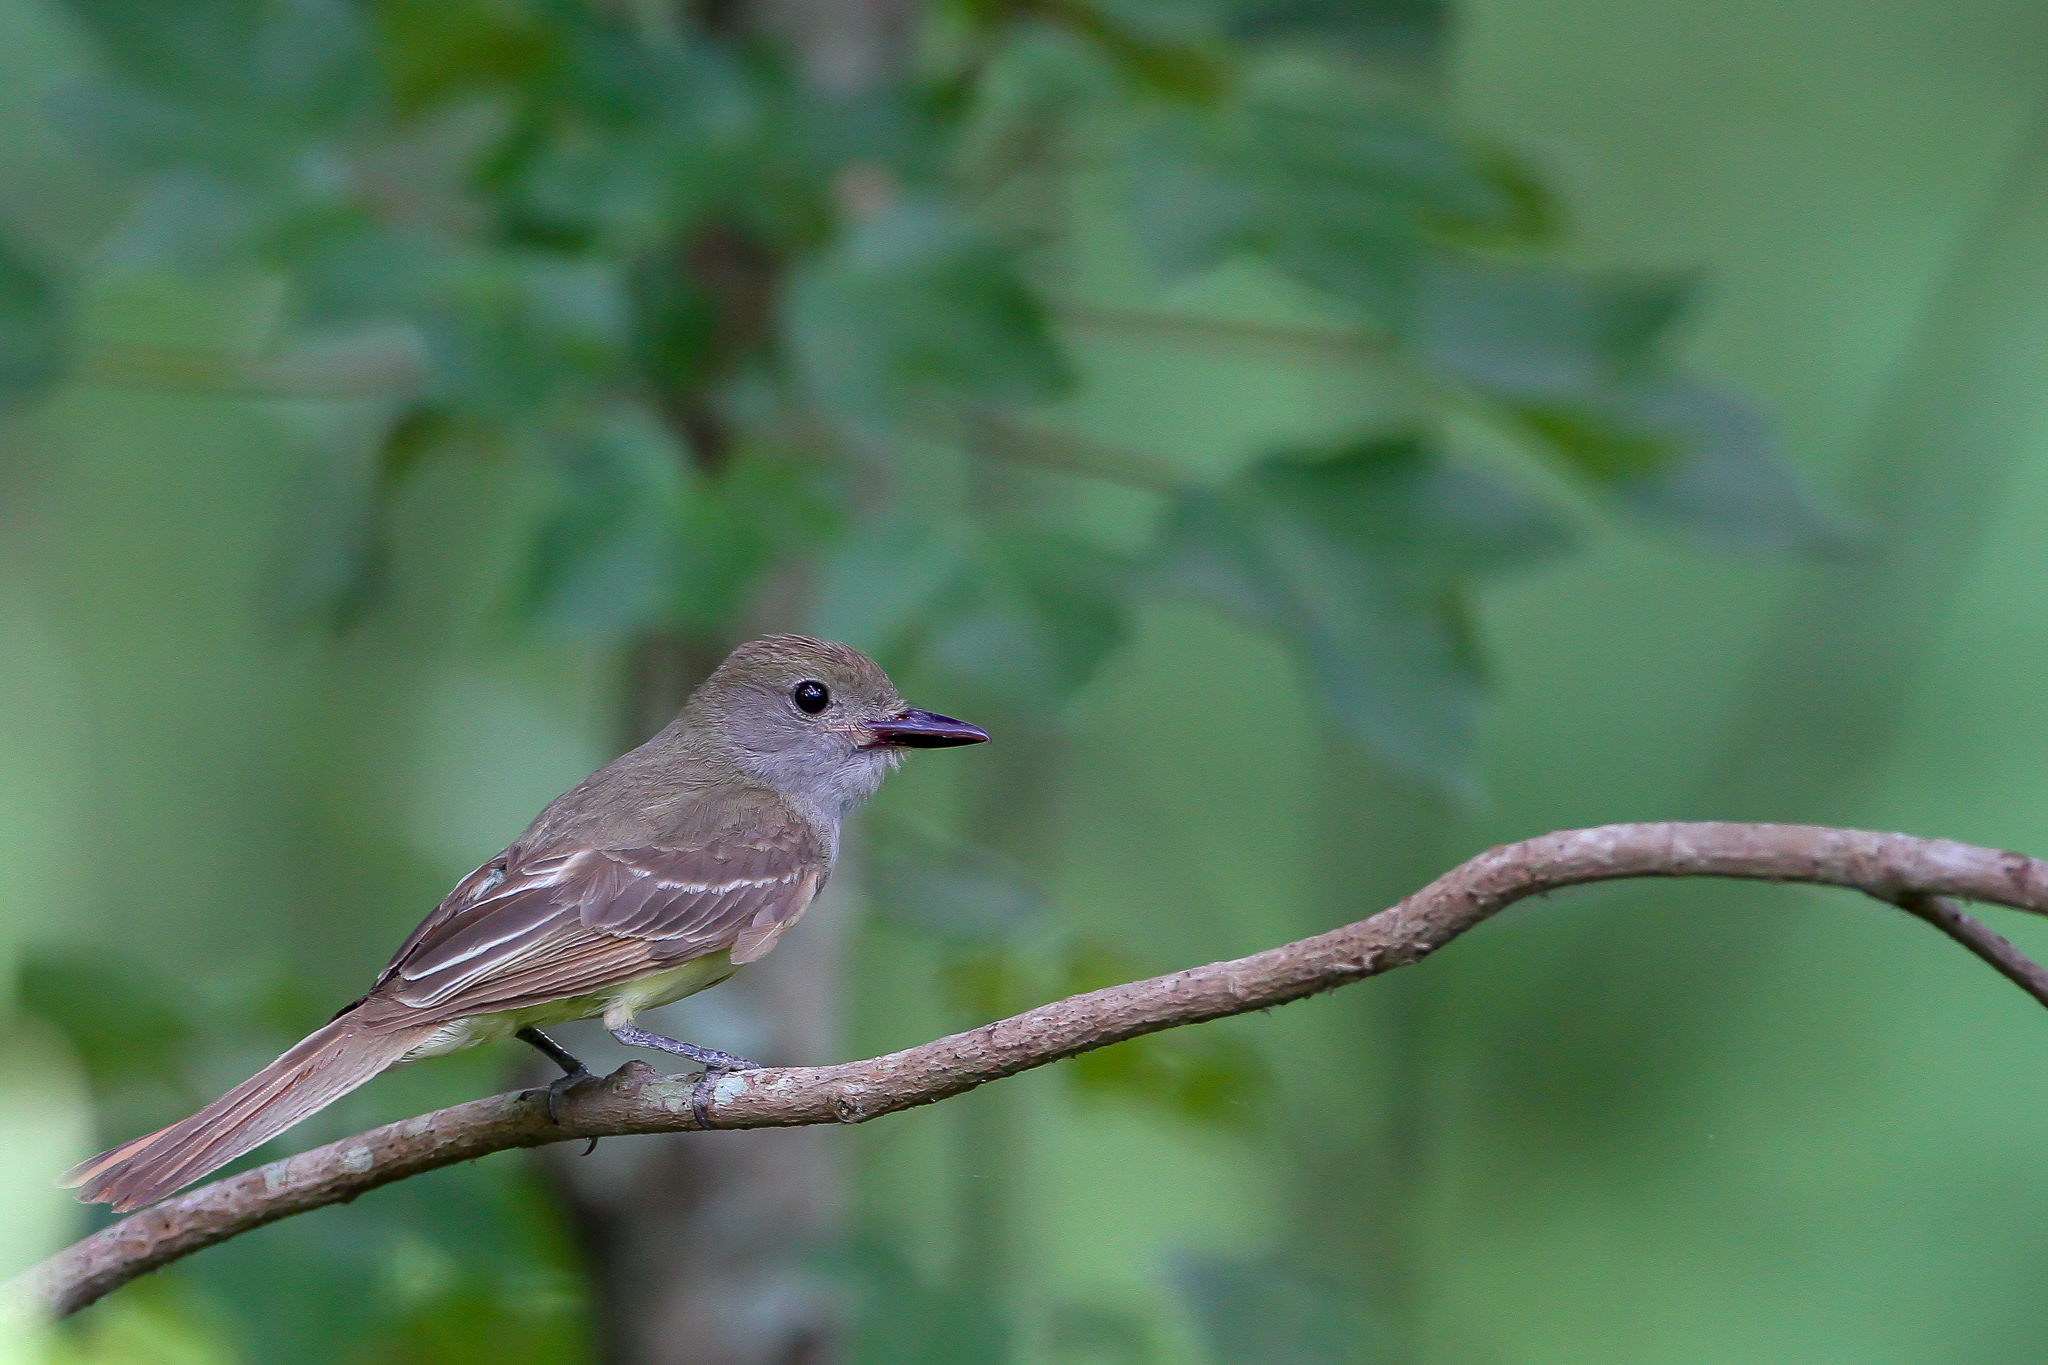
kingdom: Animalia
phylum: Chordata
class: Aves
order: Passeriformes
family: Tyrannidae
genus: Myiarchus
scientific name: Myiarchus crinitus
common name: Great crested flycatcher
